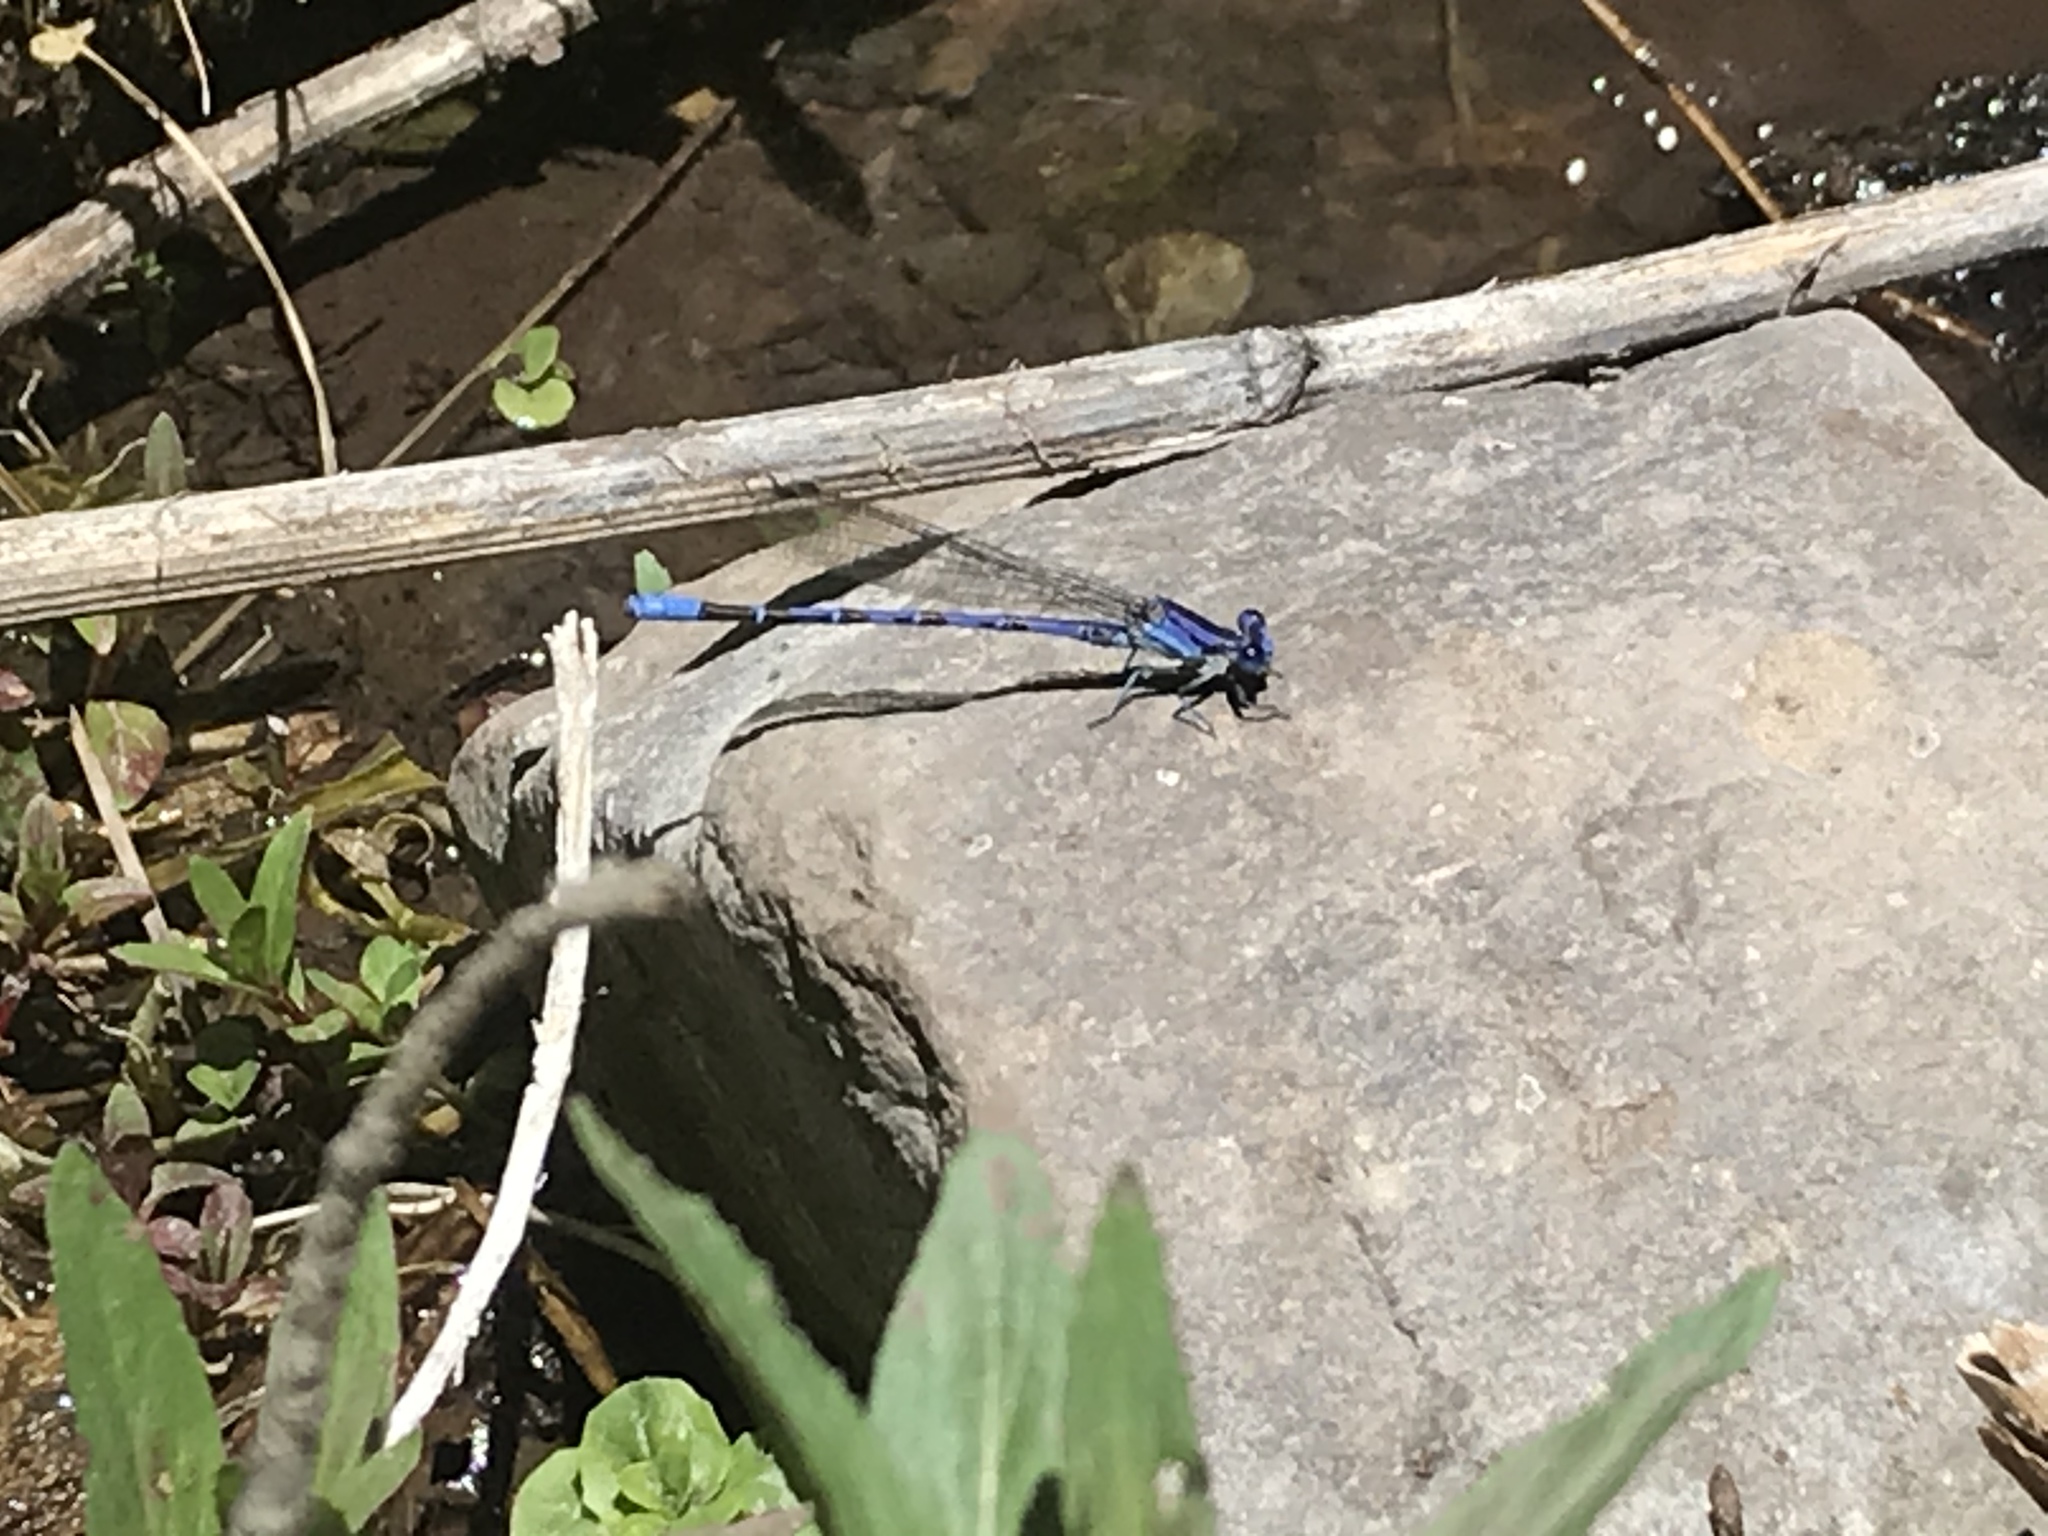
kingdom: Animalia
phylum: Arthropoda
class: Insecta
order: Odonata
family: Coenagrionidae
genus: Argia
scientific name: Argia funebris
